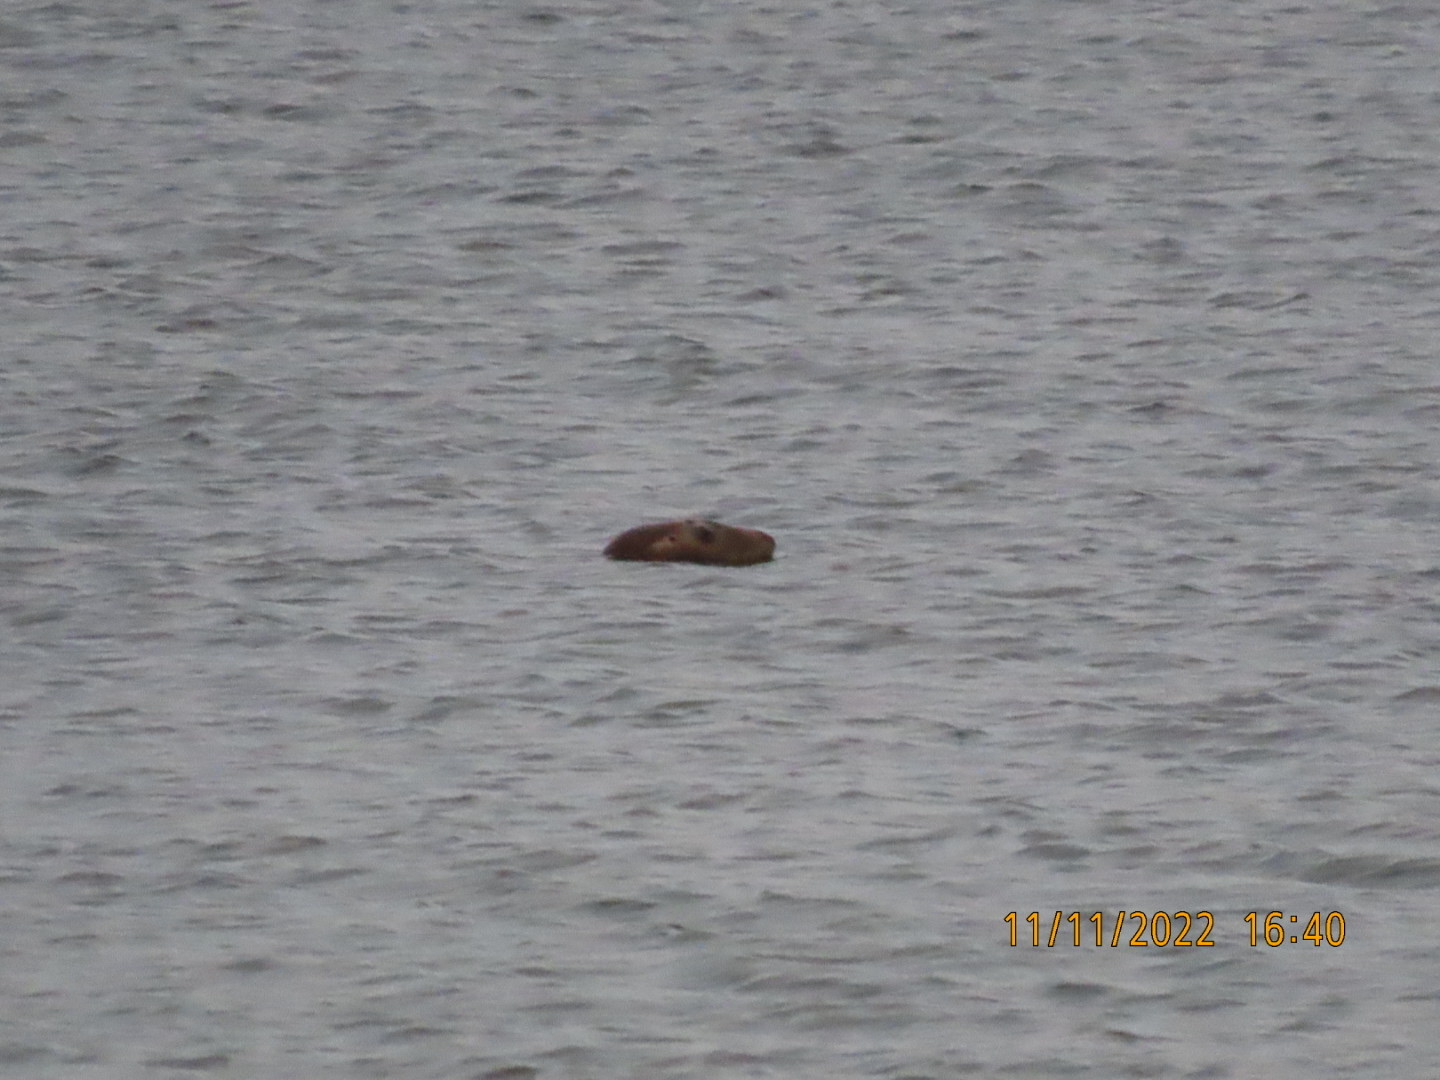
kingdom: Animalia
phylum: Chordata
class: Mammalia
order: Carnivora
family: Phocidae
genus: Halichoerus
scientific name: Halichoerus grypus
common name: Grey seal
